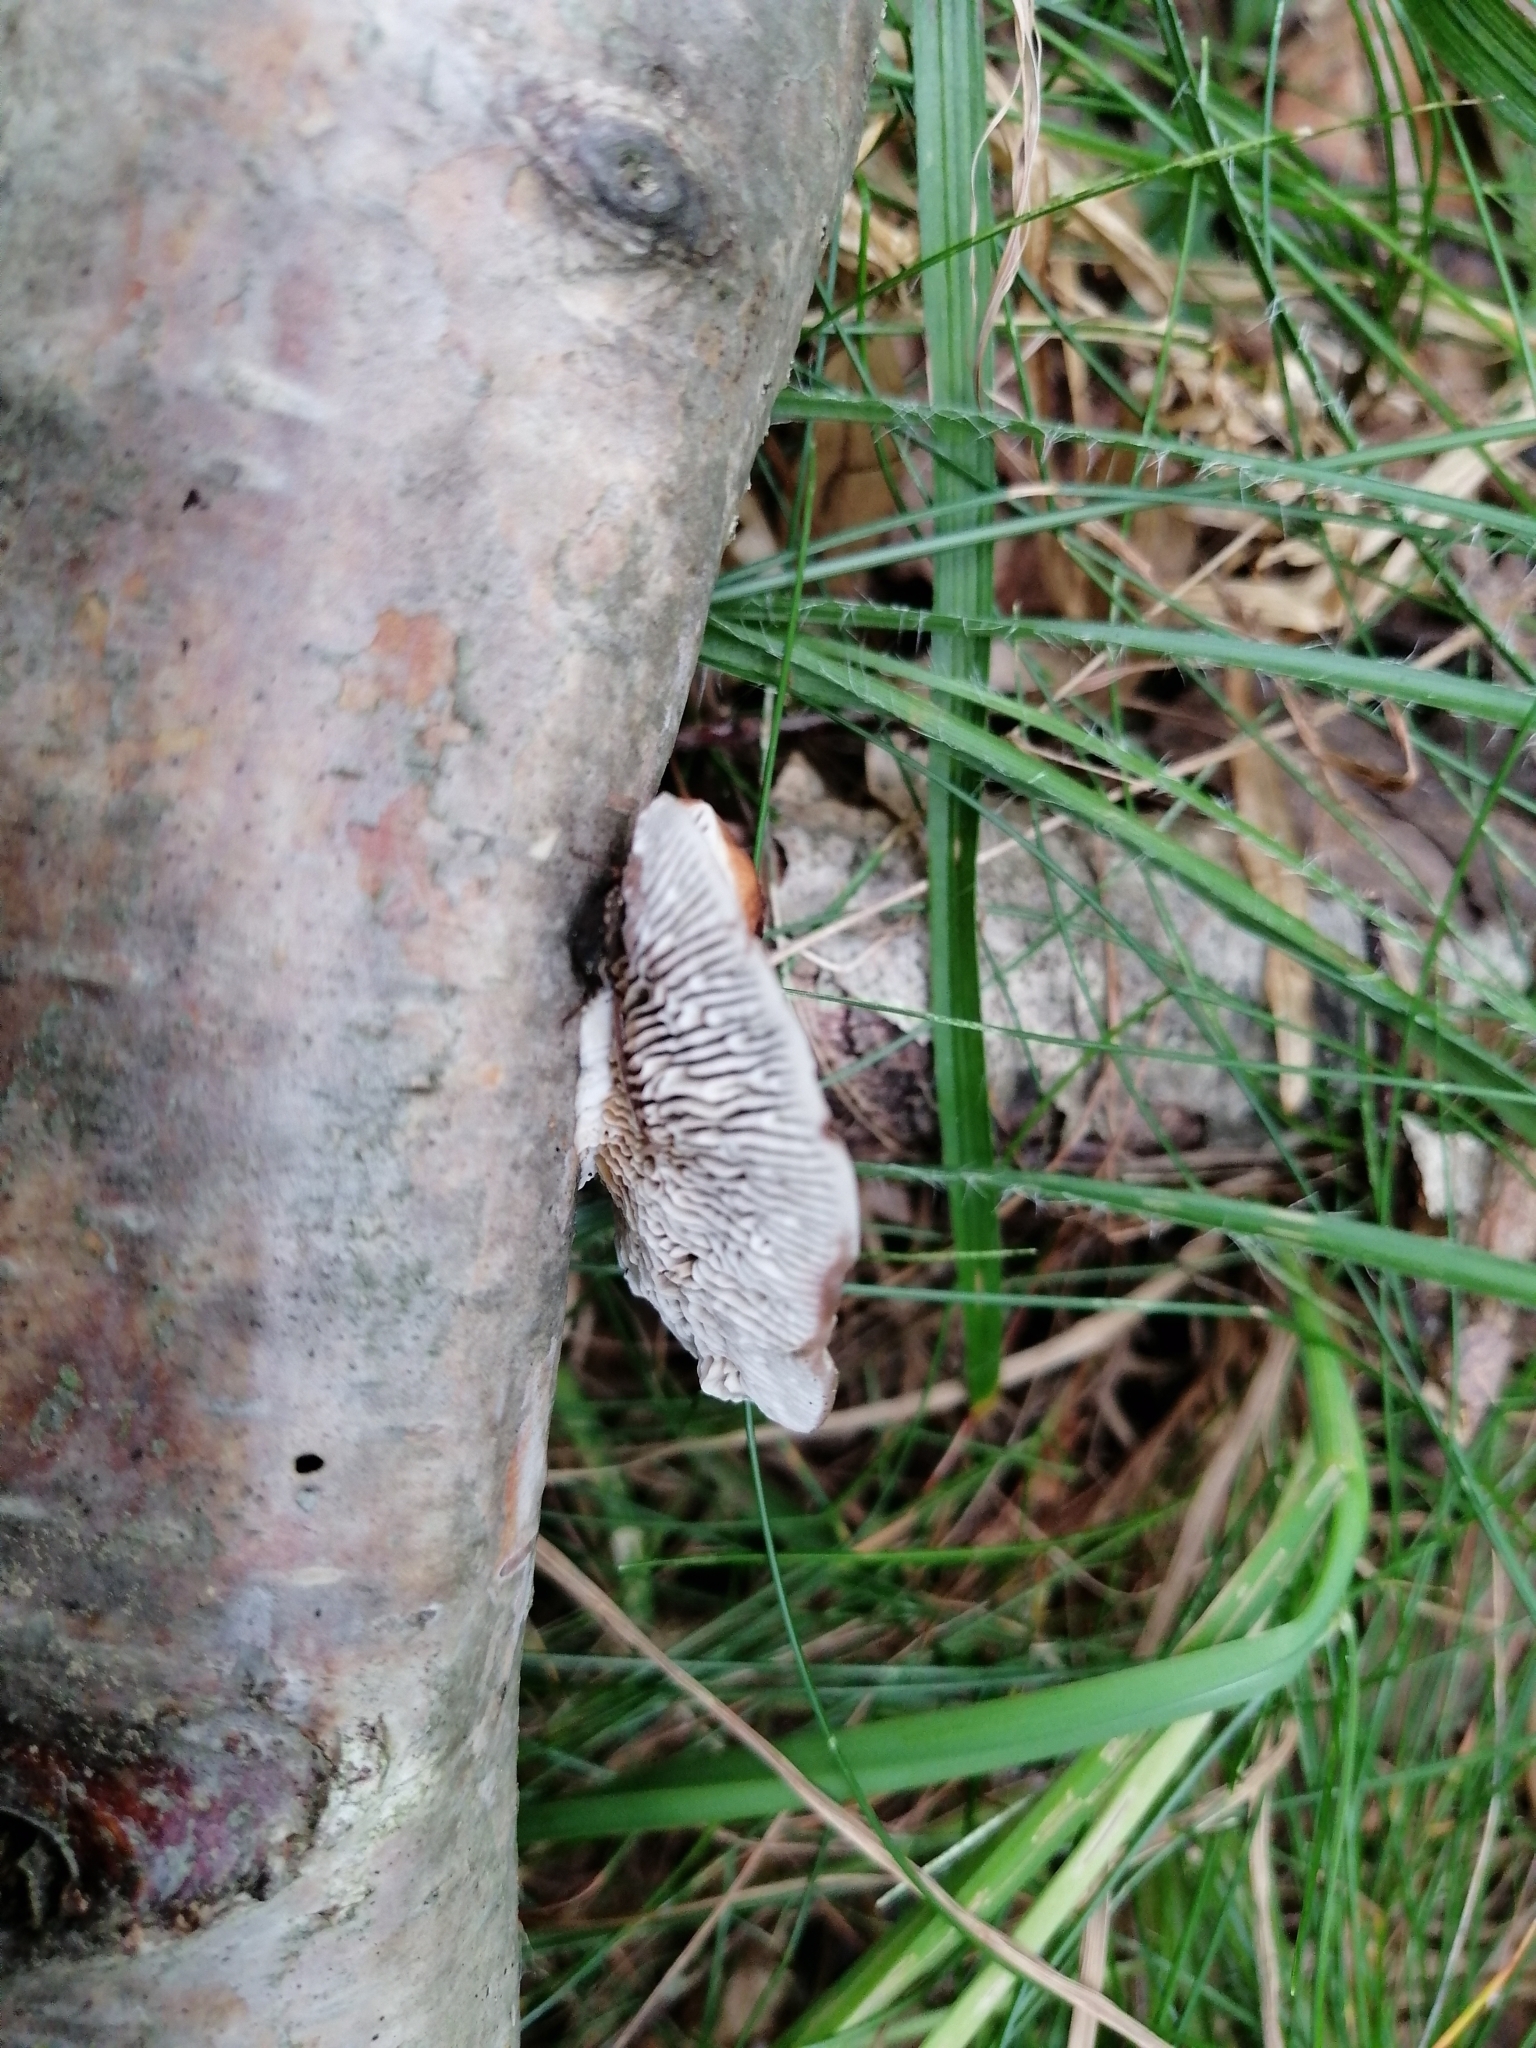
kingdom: Fungi
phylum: Basidiomycota
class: Agaricomycetes
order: Polyporales
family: Polyporaceae
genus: Daedaleopsis
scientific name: Daedaleopsis tricolor
